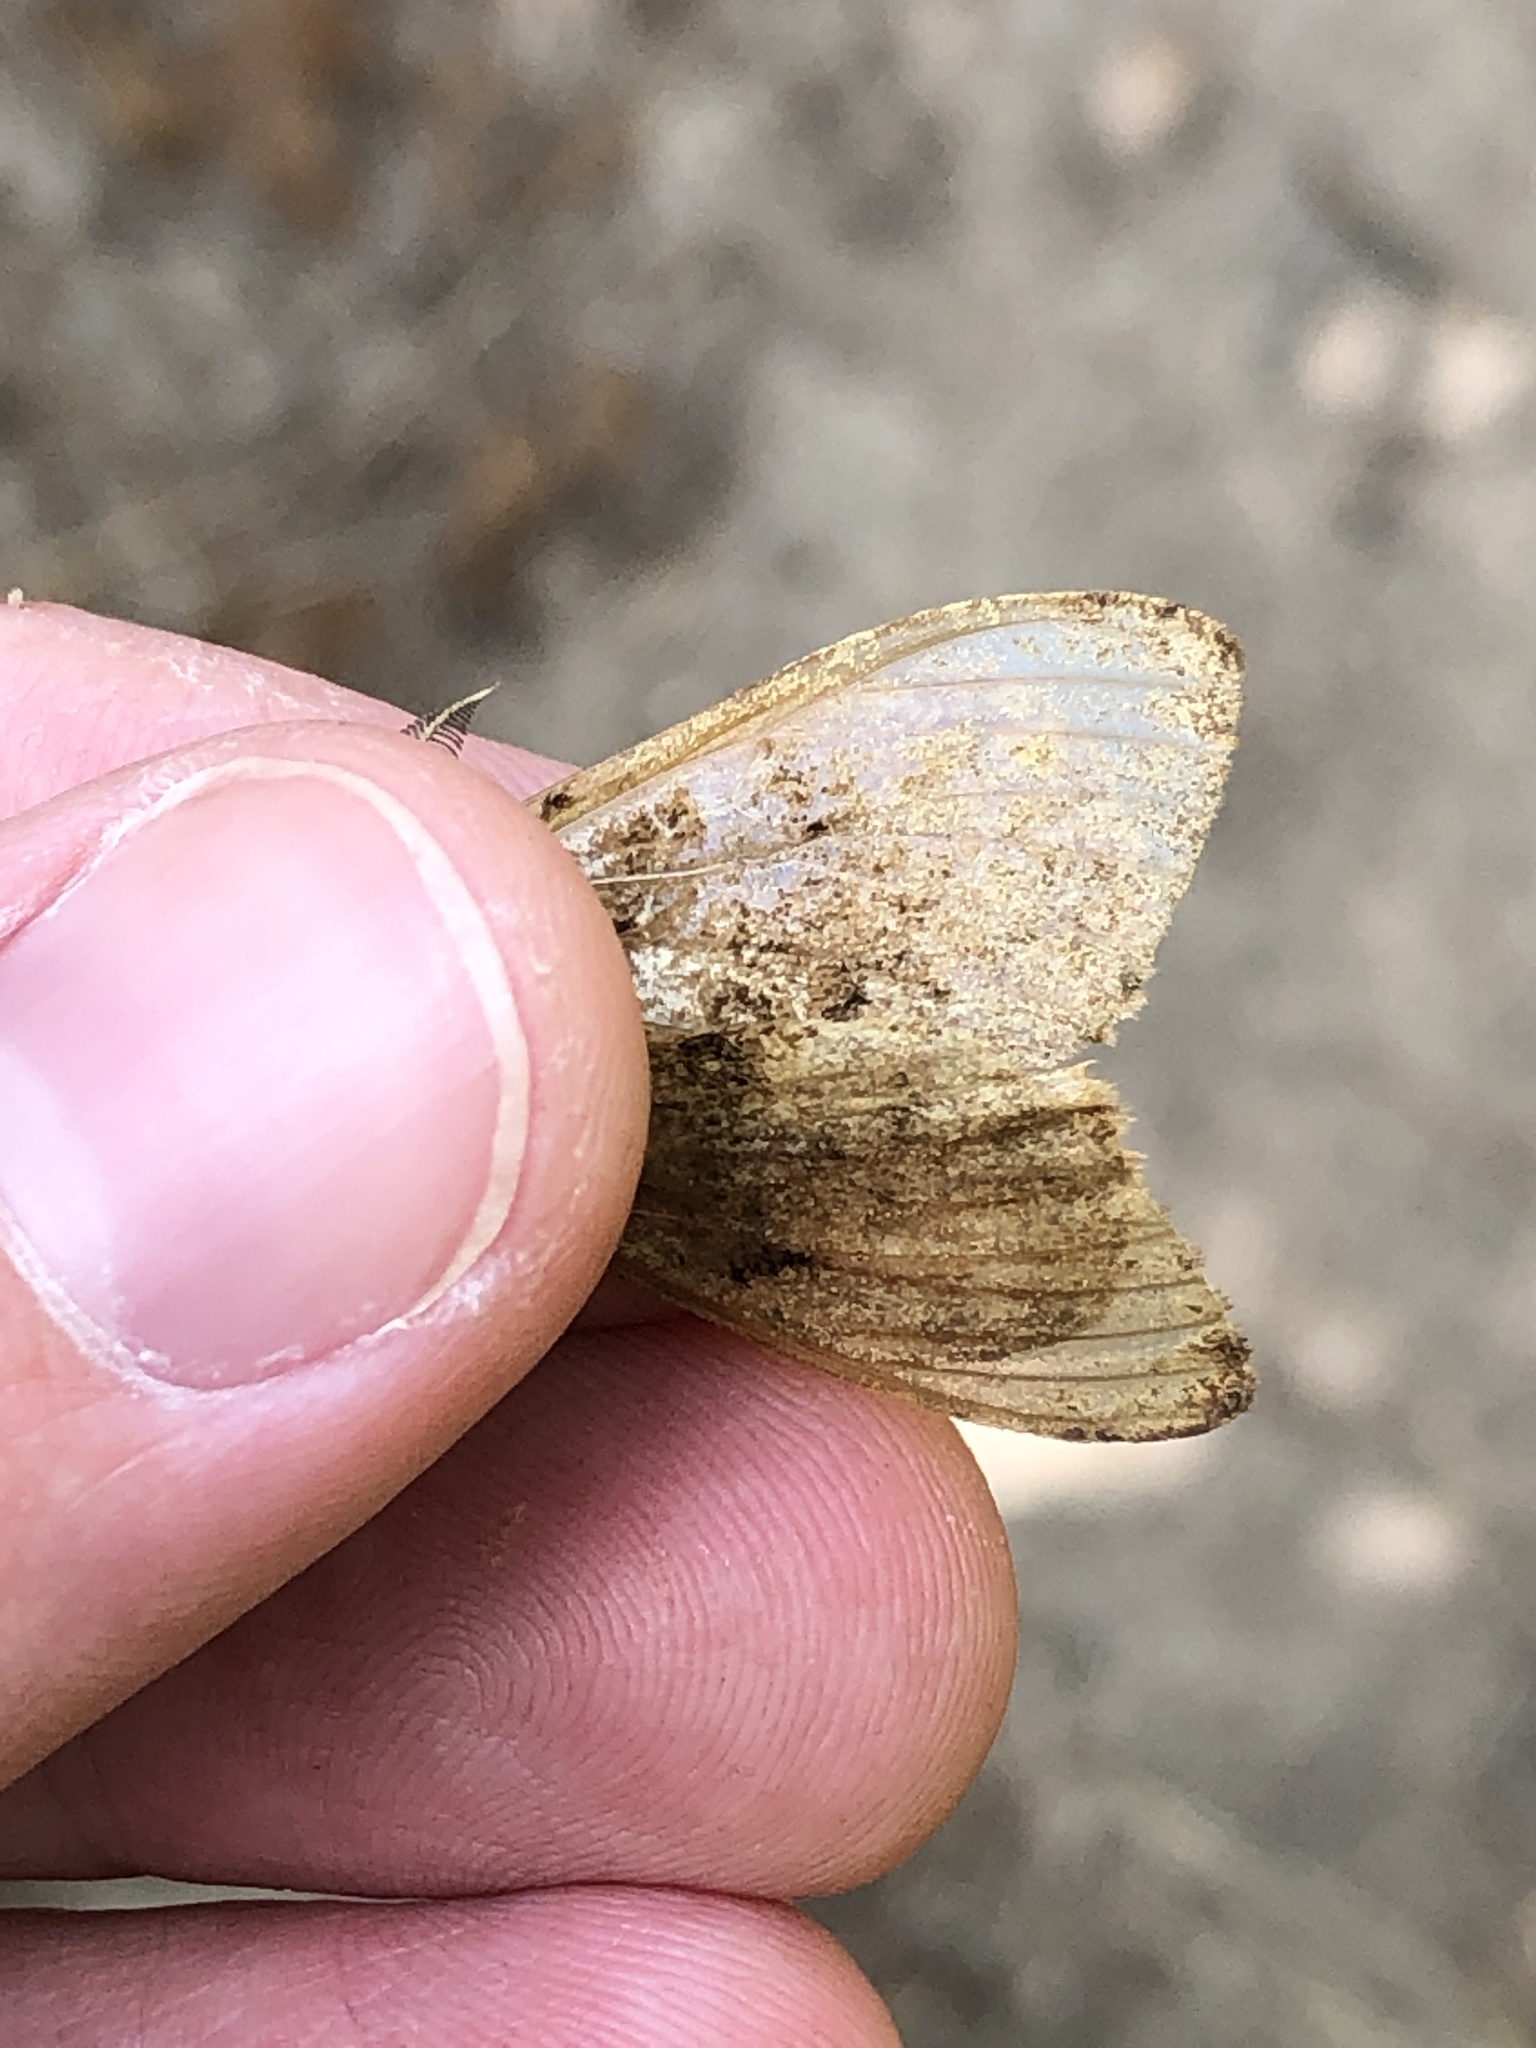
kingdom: Animalia
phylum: Arthropoda
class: Insecta
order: Lepidoptera
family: Erebidae
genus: Lymantria
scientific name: Lymantria dispar
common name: Gypsy moth
